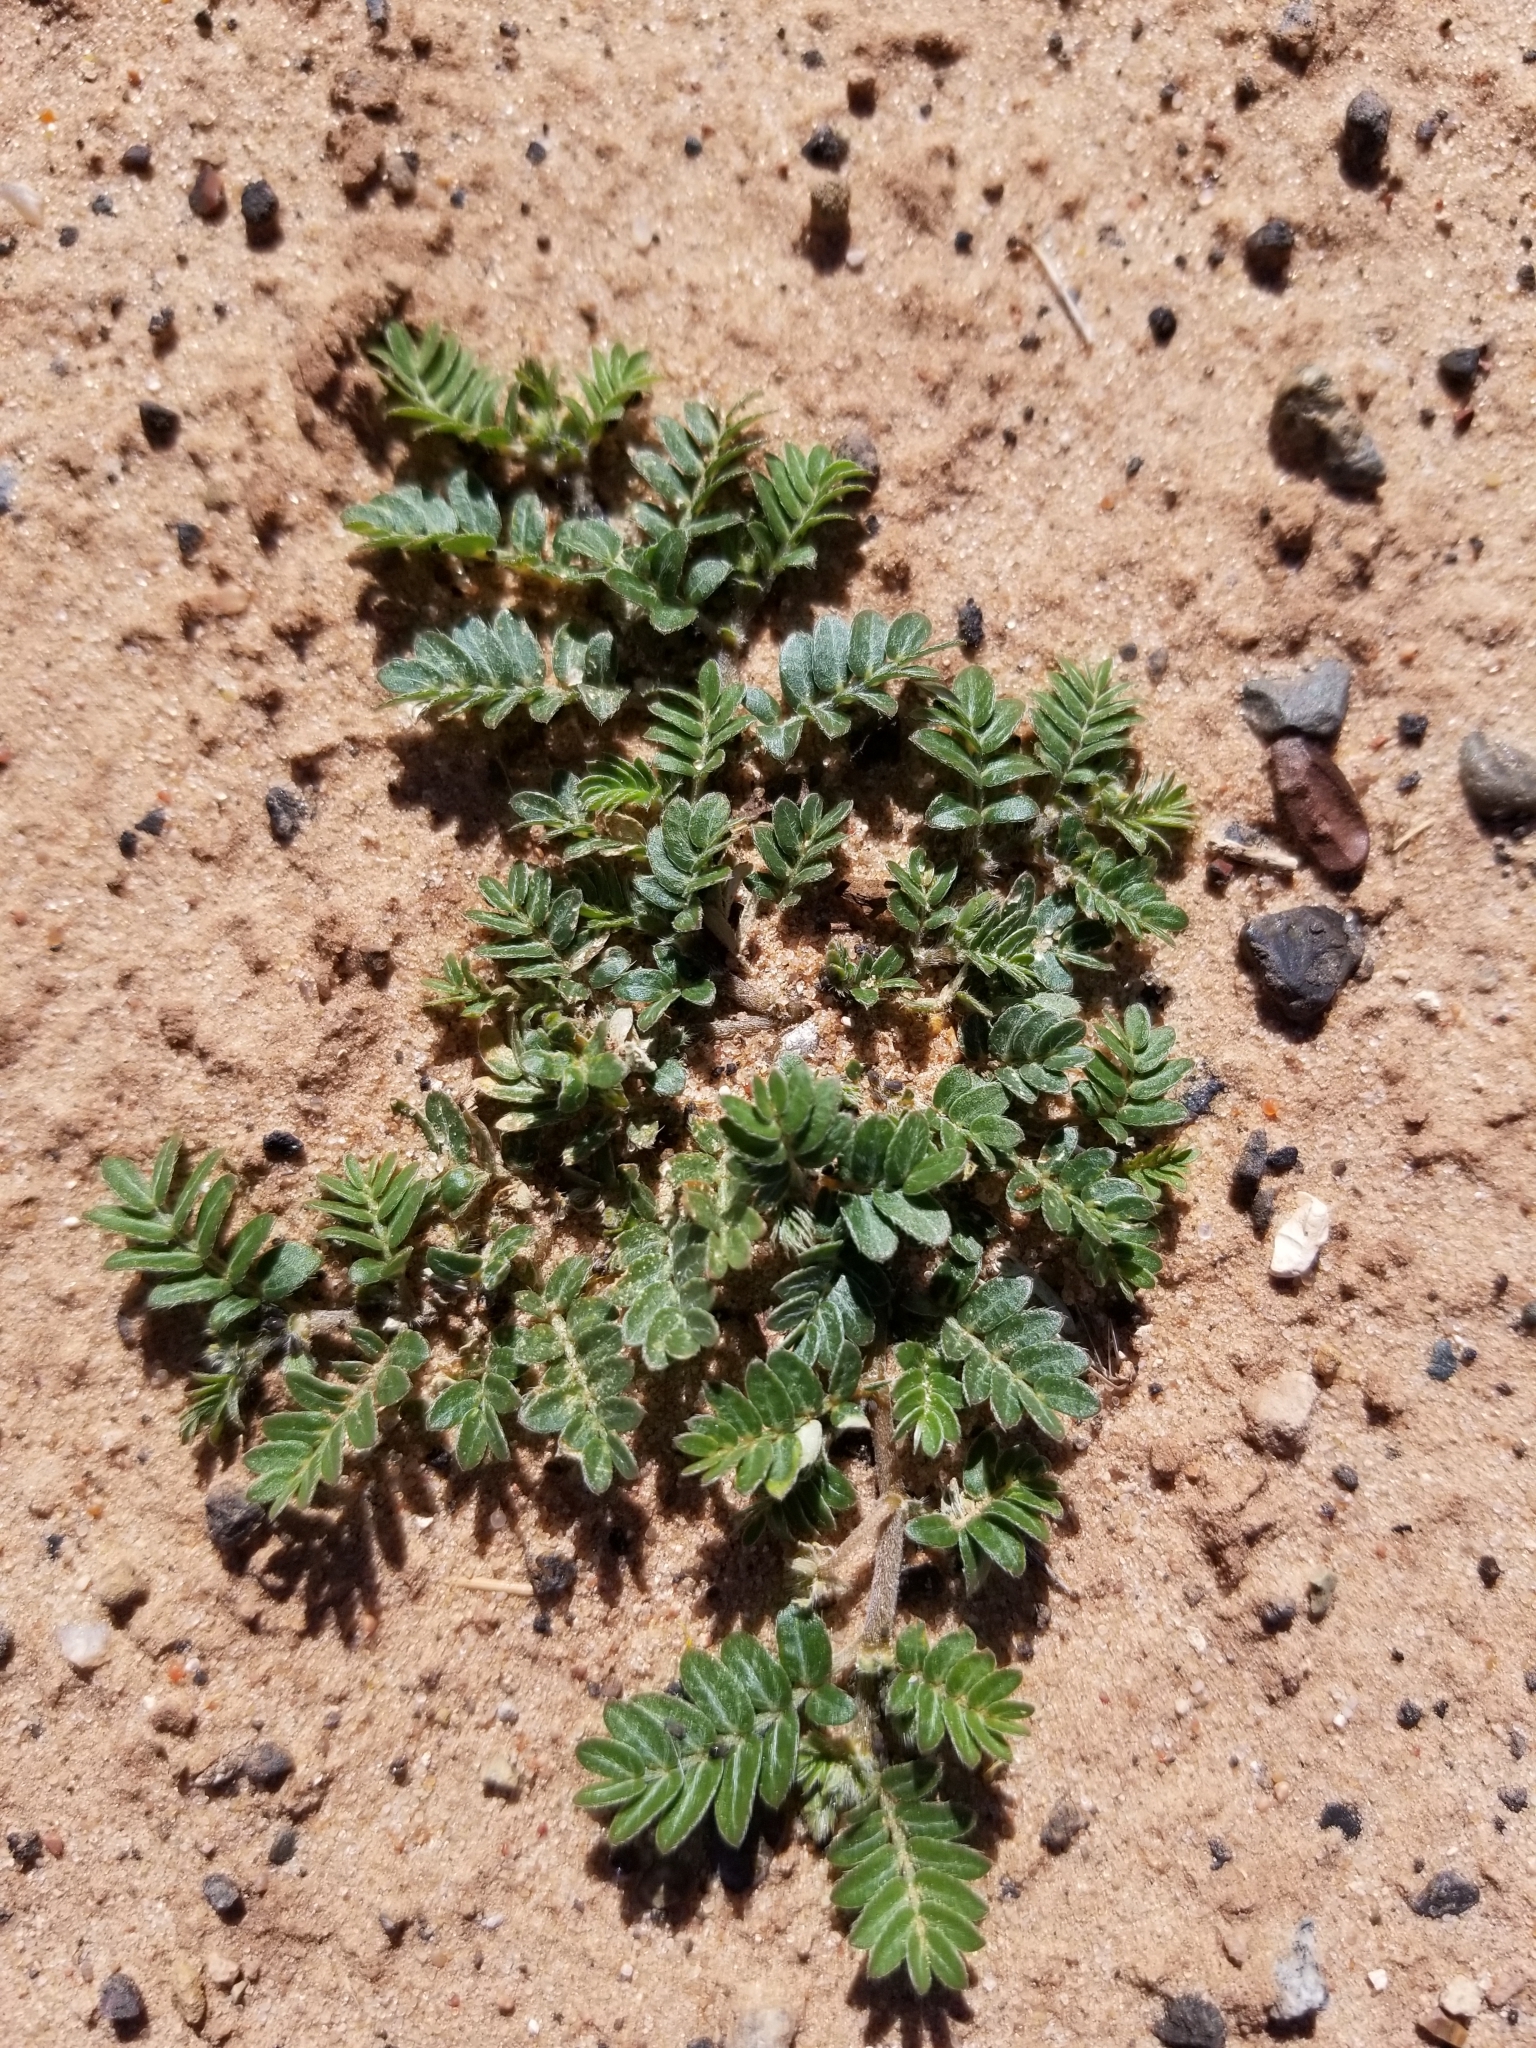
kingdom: Plantae
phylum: Tracheophyta
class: Magnoliopsida
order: Zygophyllales
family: Zygophyllaceae
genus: Tribulus
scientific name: Tribulus terrestris
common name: Puncturevine
